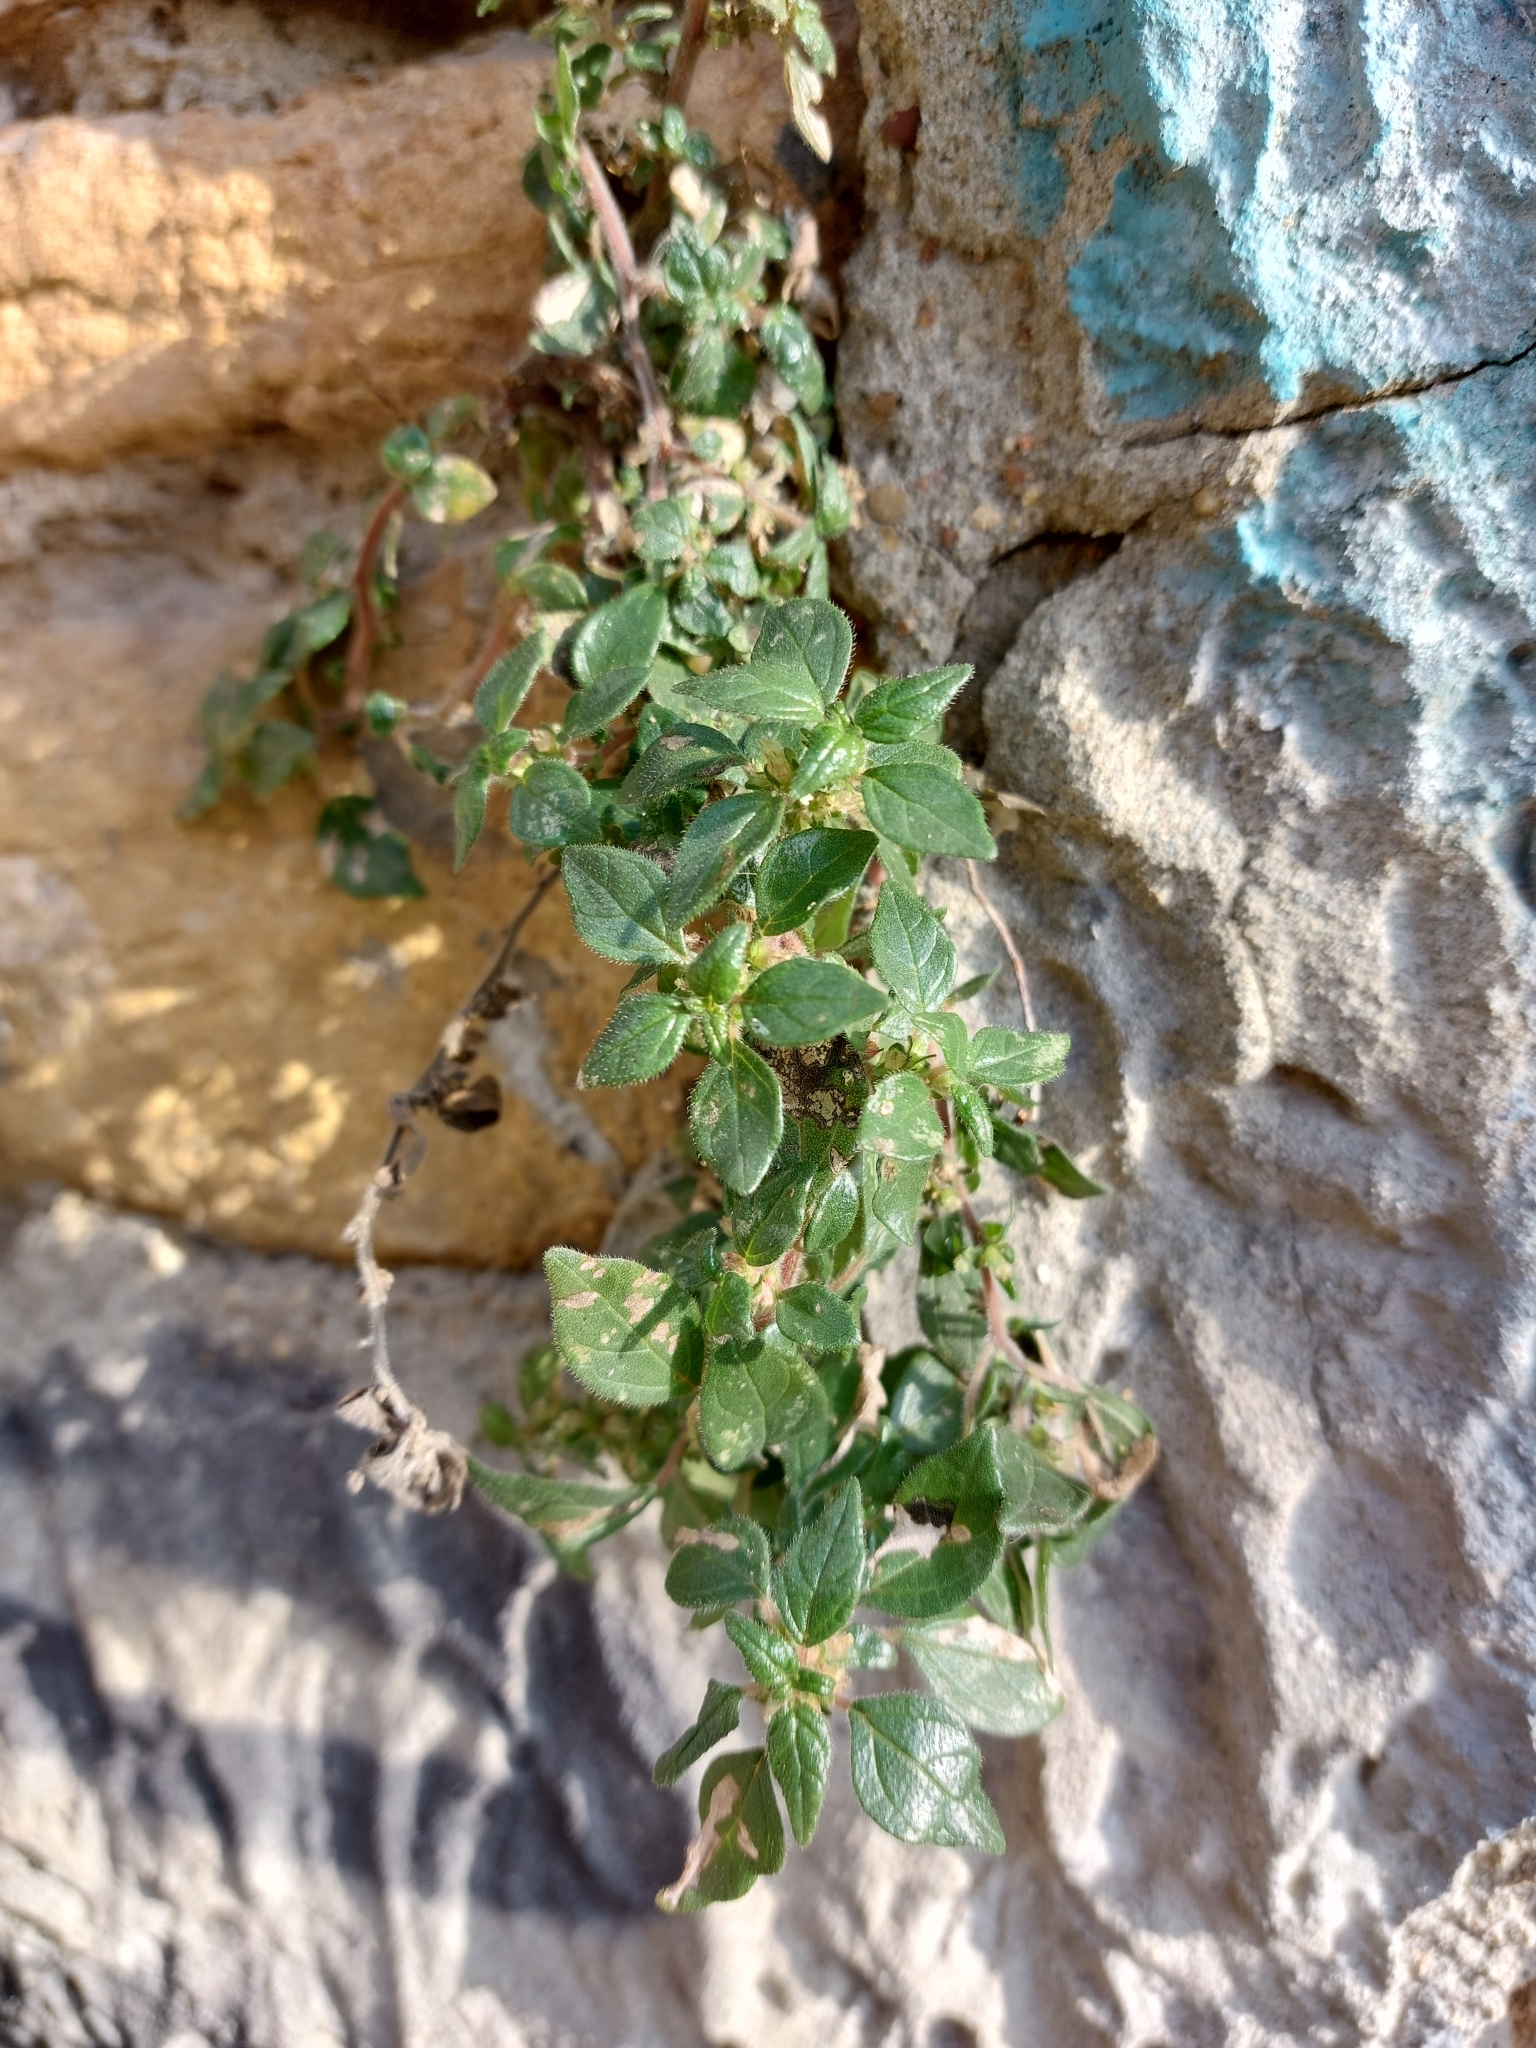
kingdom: Plantae
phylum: Tracheophyta
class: Magnoliopsida
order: Rosales
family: Urticaceae
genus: Parietaria
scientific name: Parietaria judaica
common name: Pellitory-of-the-wall
